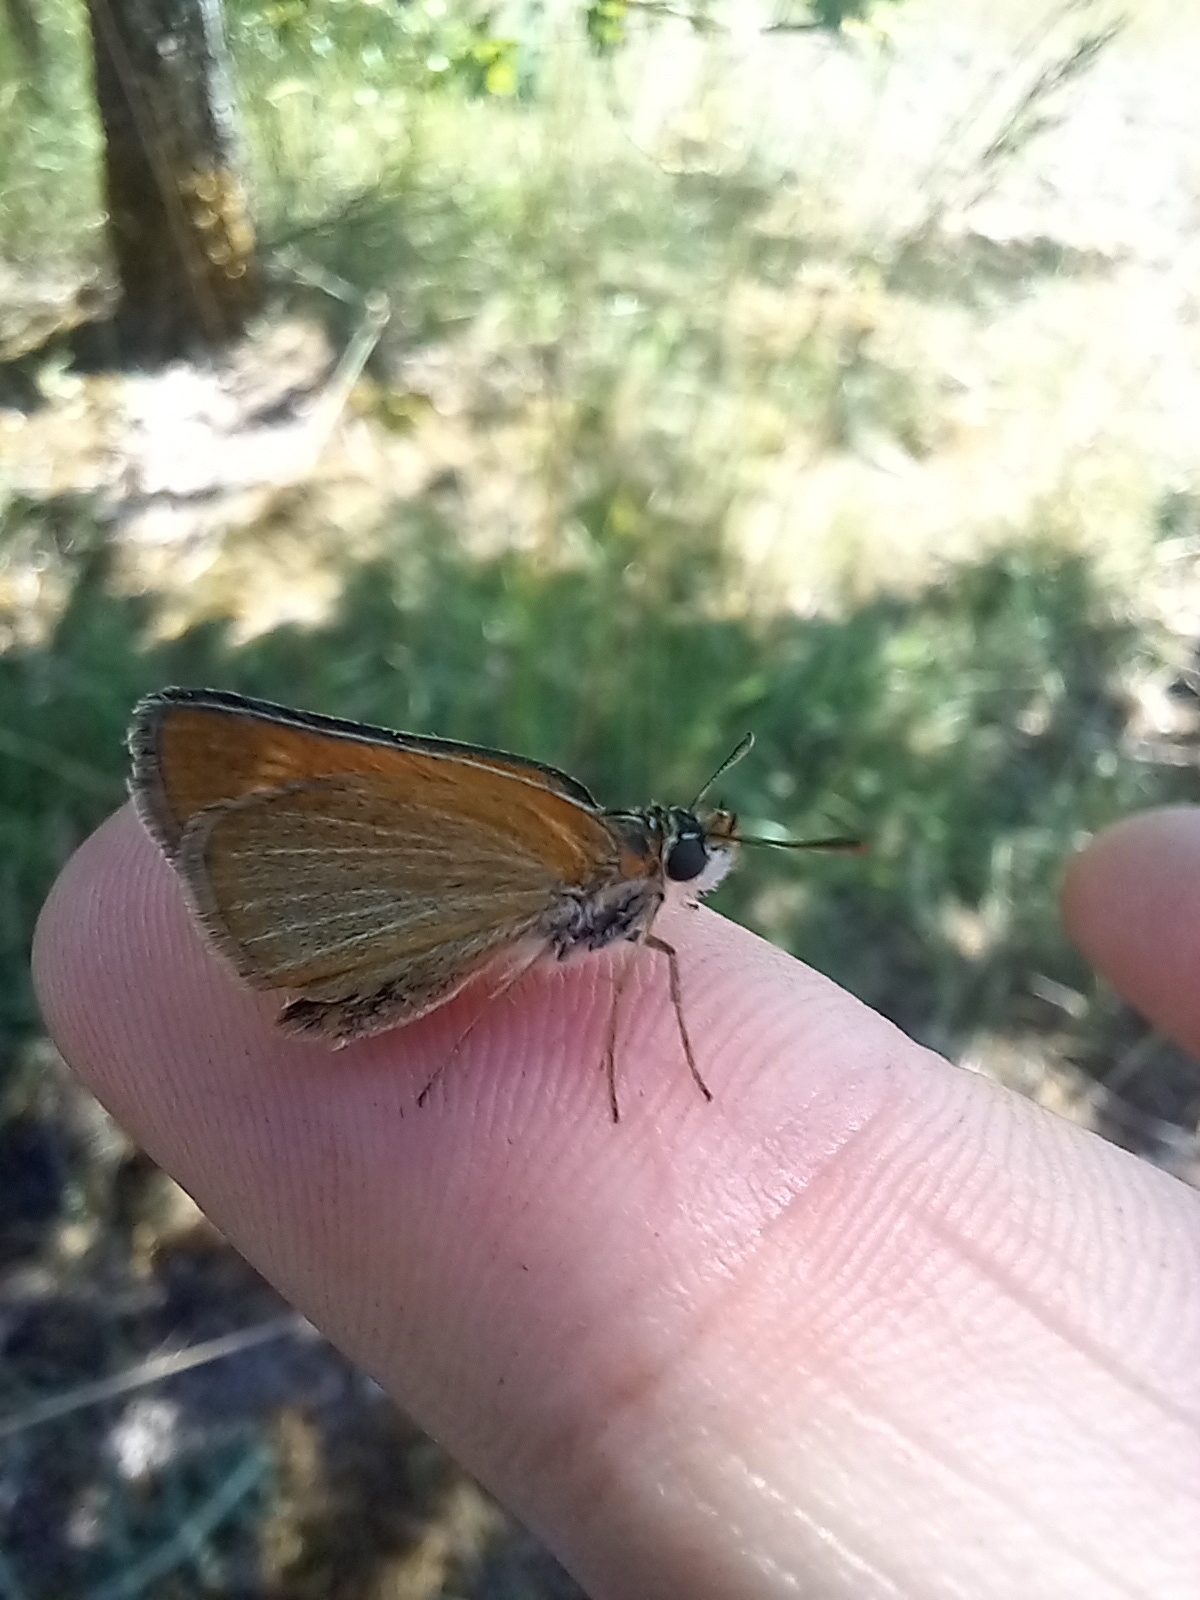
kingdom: Animalia
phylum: Arthropoda
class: Insecta
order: Lepidoptera
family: Hesperiidae
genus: Thymelicus
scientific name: Thymelicus acteon
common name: Lulworth skipper
